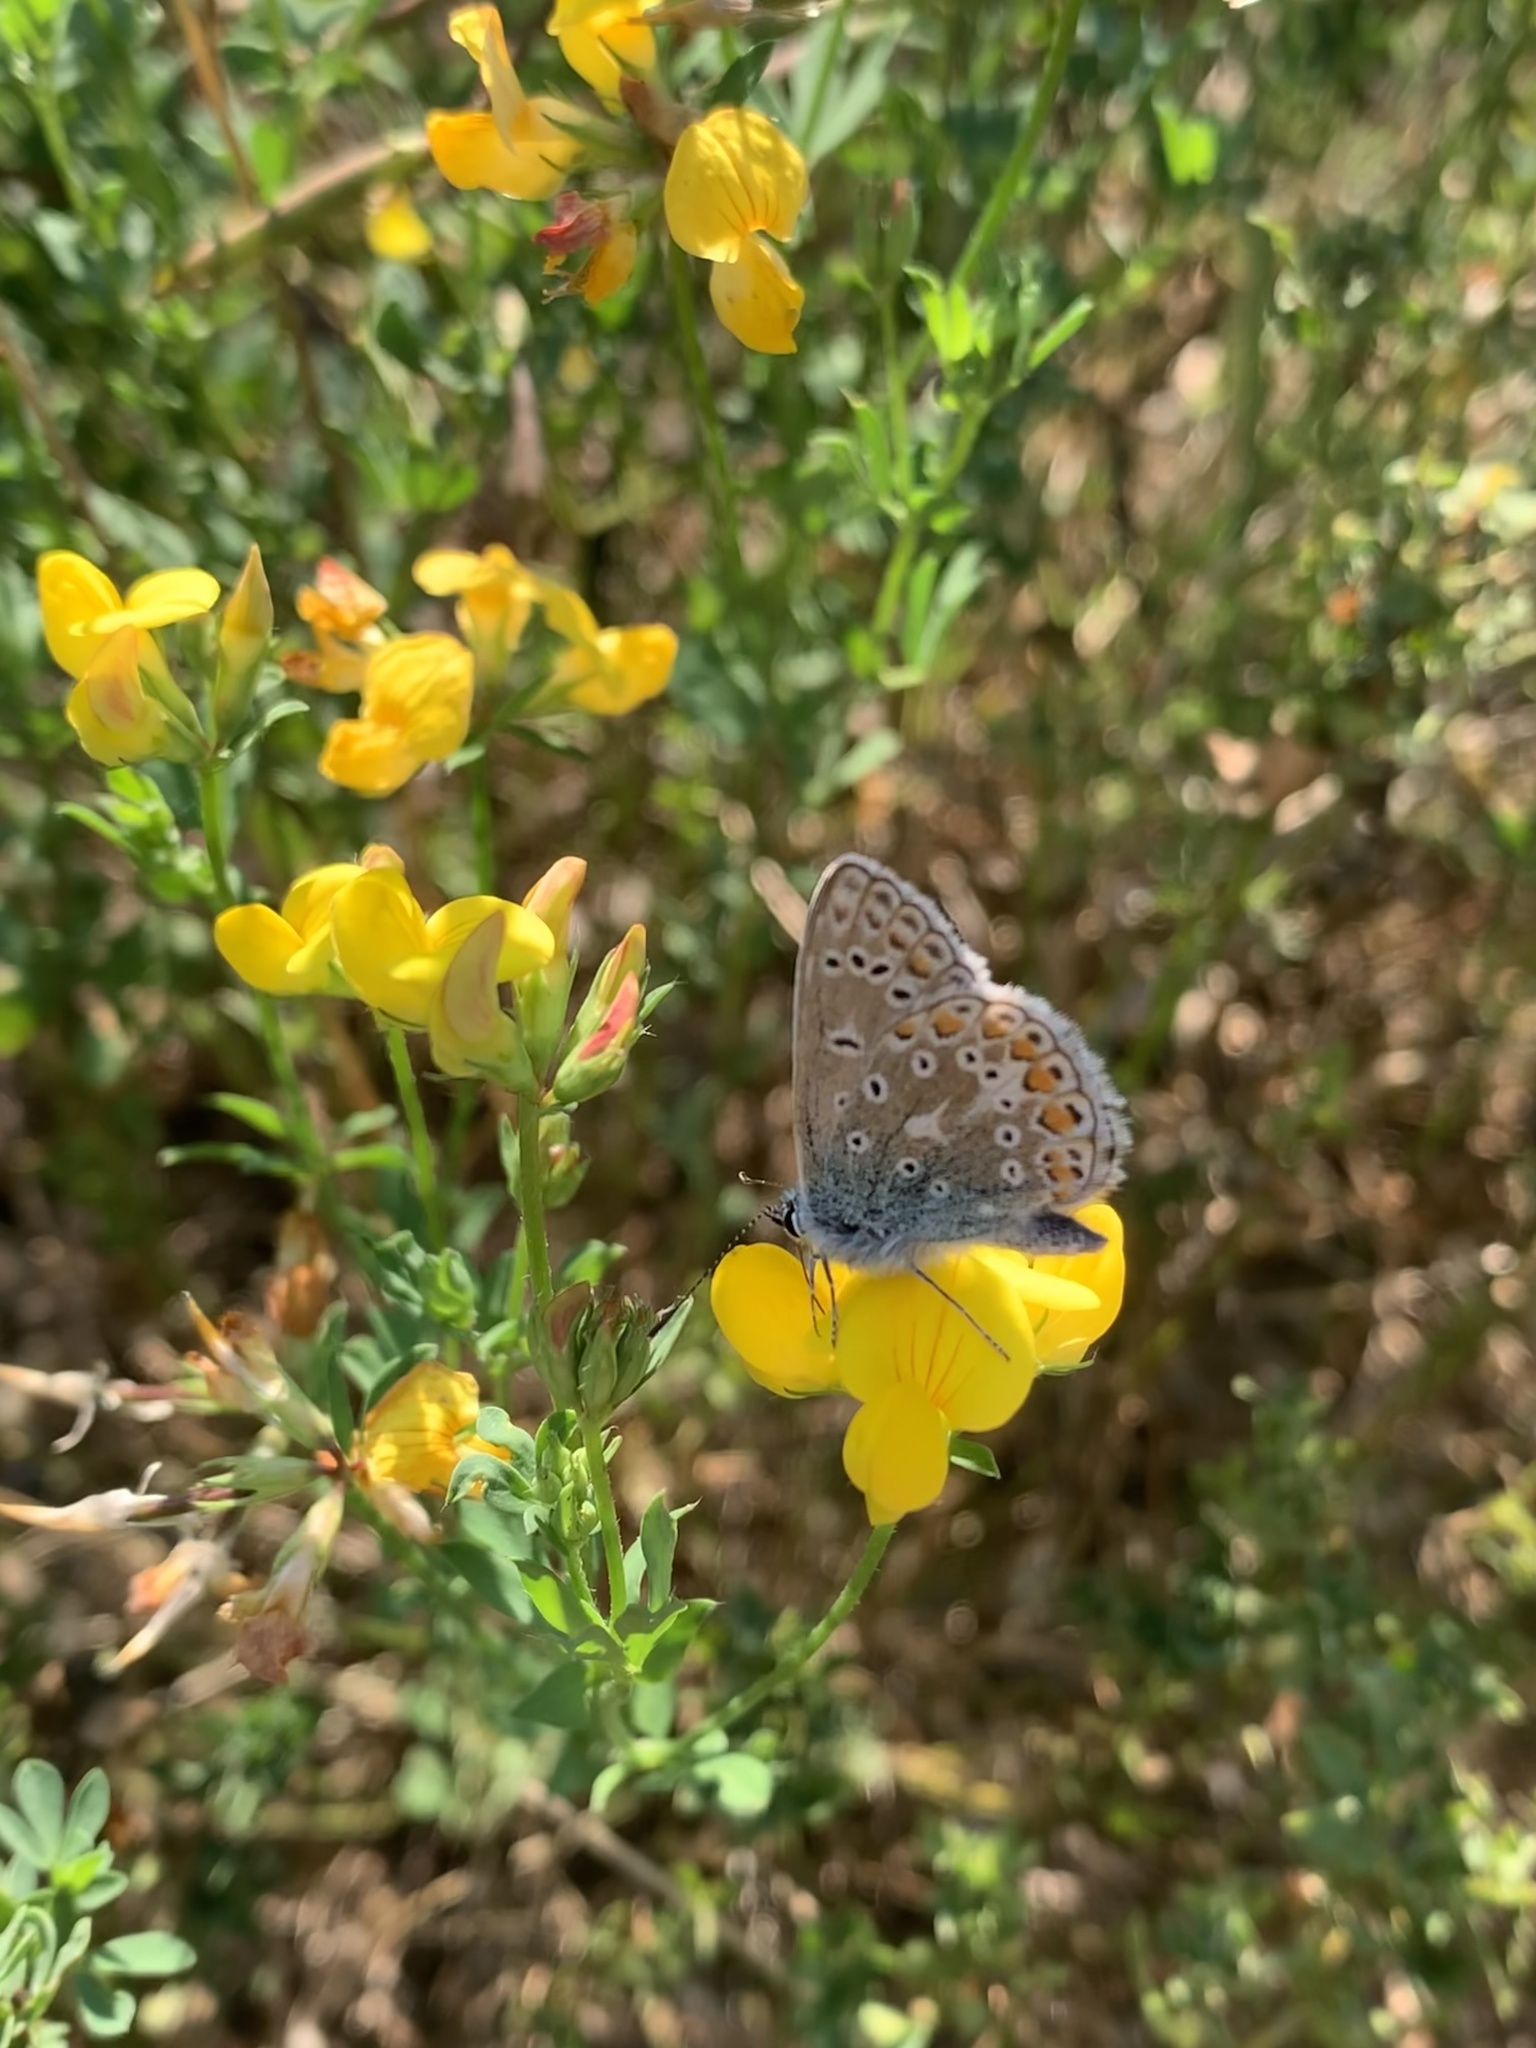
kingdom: Animalia
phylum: Arthropoda
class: Insecta
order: Lepidoptera
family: Lycaenidae
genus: Polyommatus
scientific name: Polyommatus icarus
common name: Common blue
